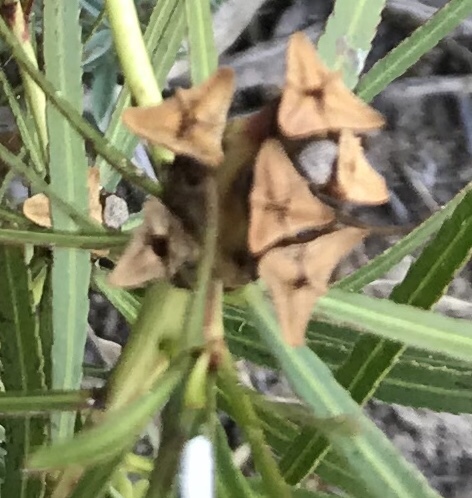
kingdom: Plantae
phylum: Tracheophyta
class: Magnoliopsida
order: Malpighiales
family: Euphorbiaceae
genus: Stillingia
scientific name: Stillingia texana
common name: Texas stillingia
